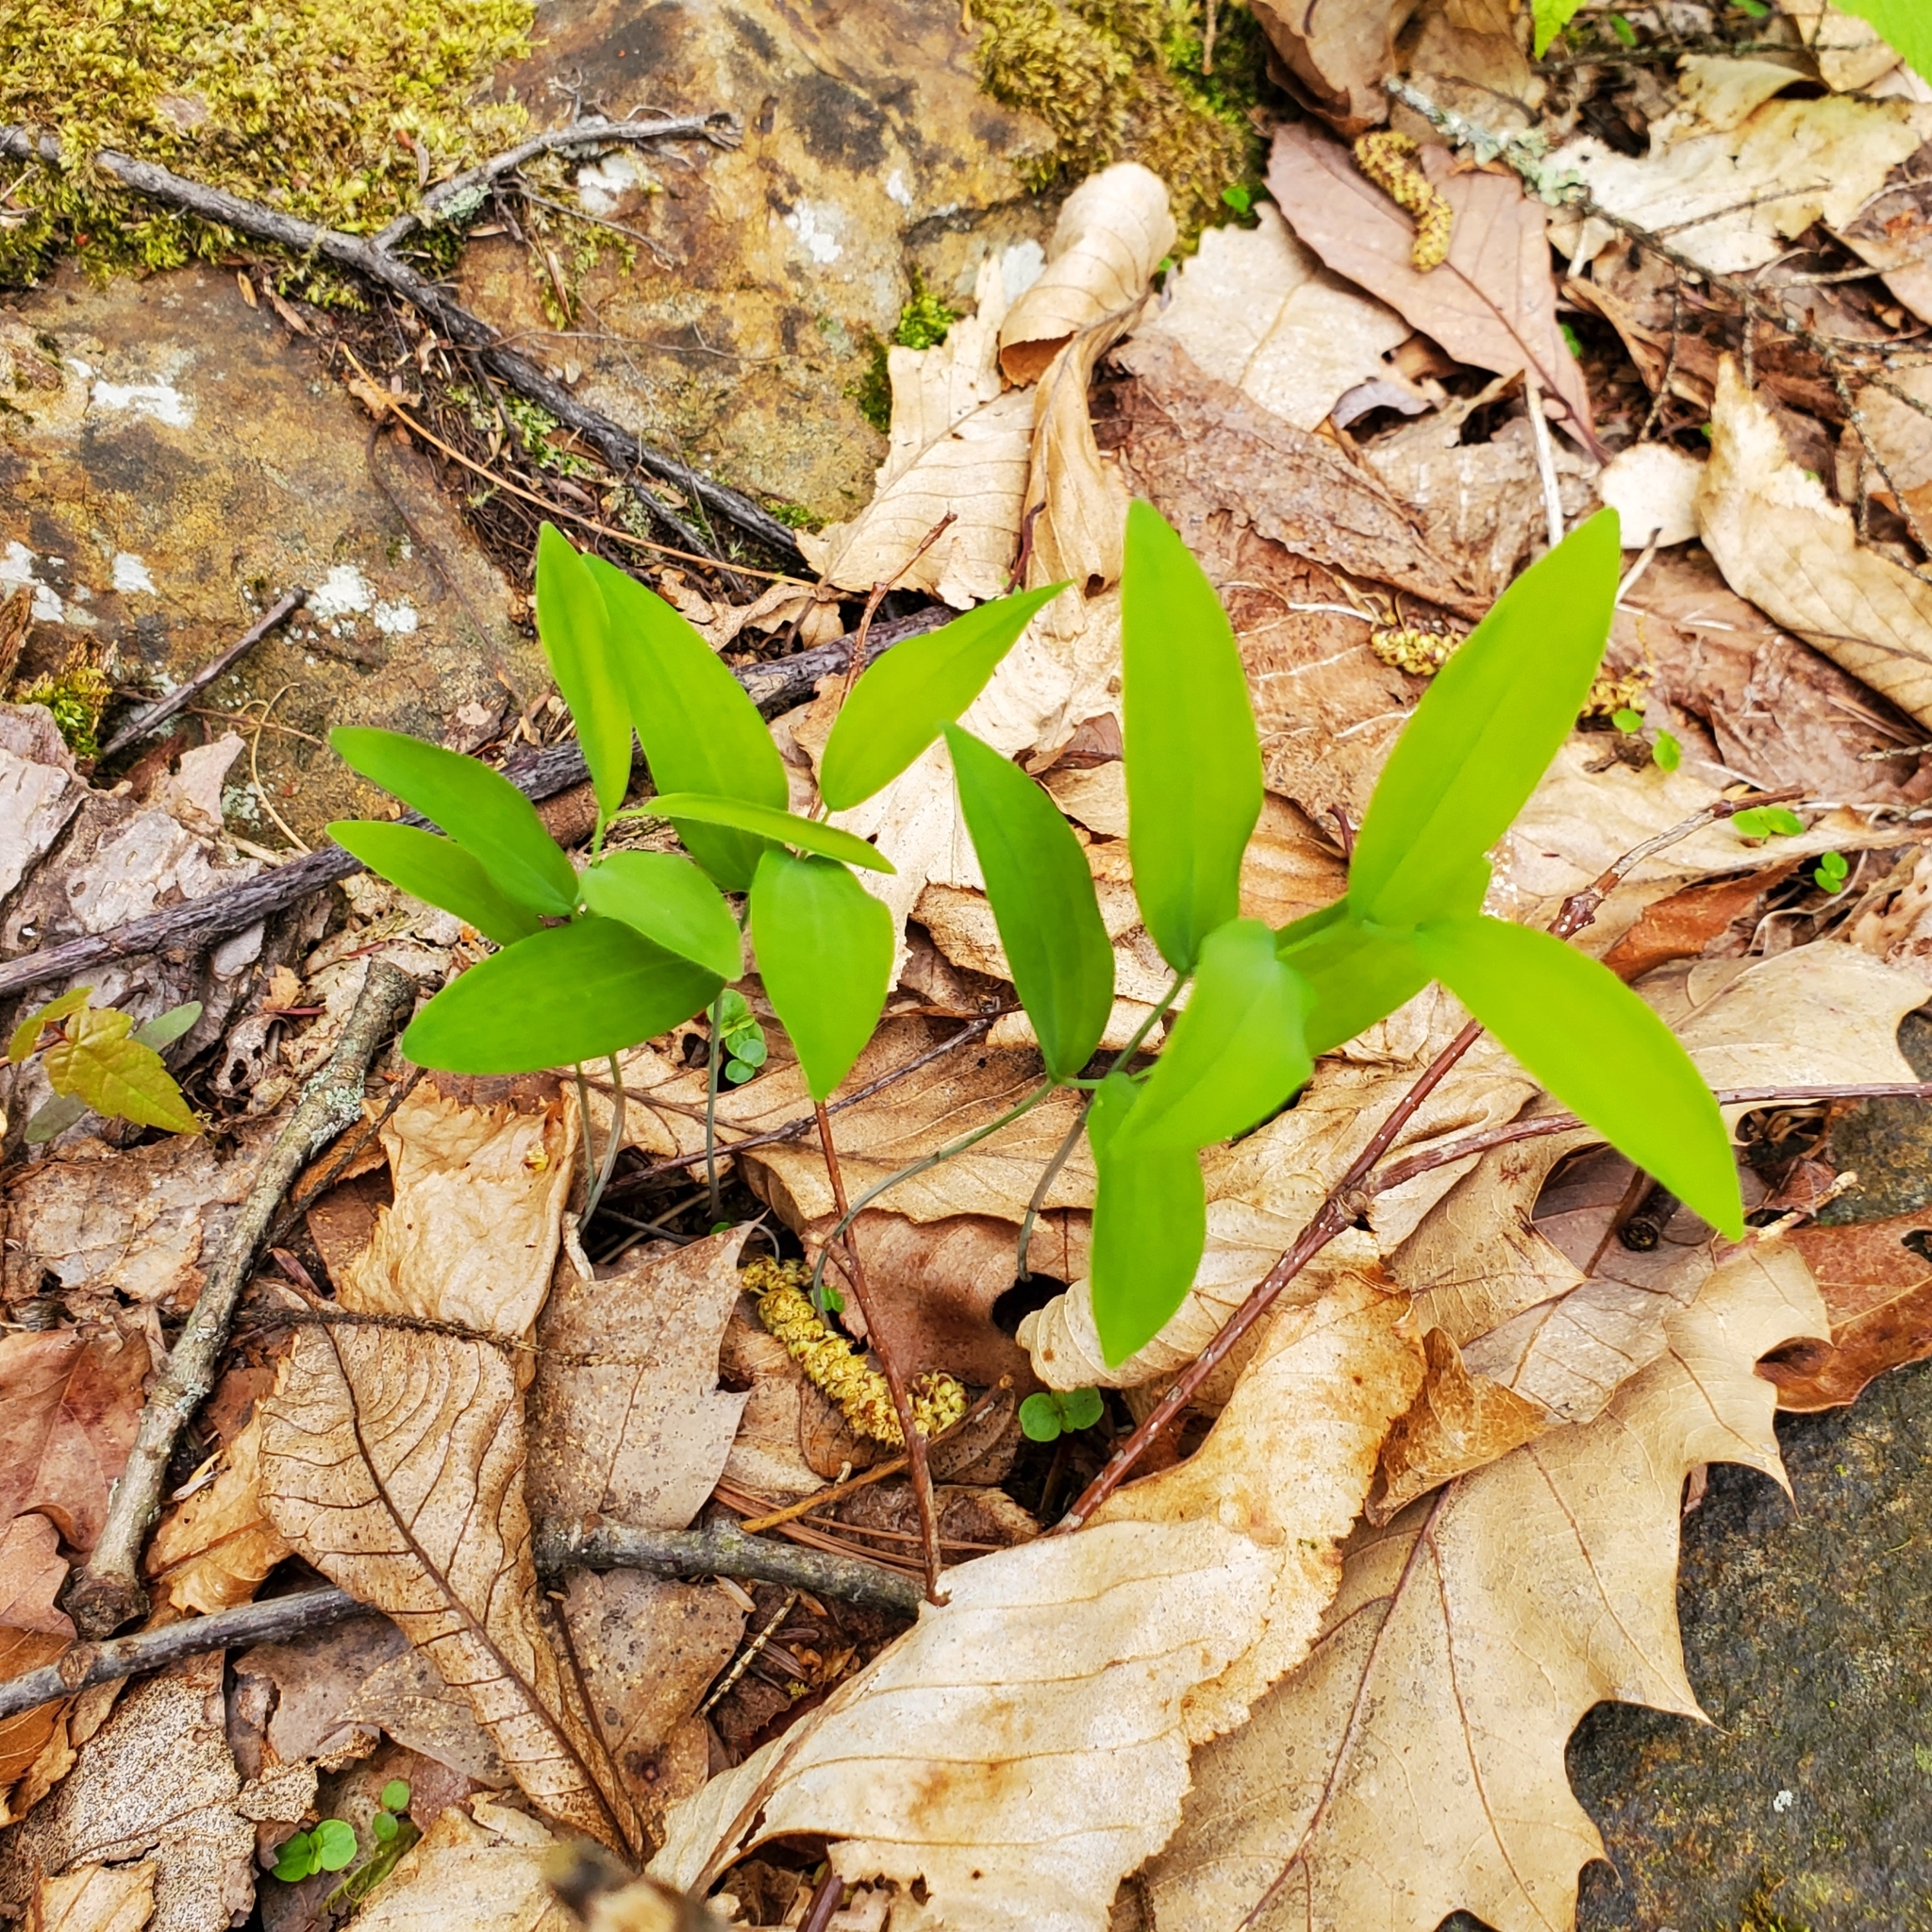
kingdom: Plantae
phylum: Tracheophyta
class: Liliopsida
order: Asparagales
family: Asparagaceae
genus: Polygonatum
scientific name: Polygonatum pubescens
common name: Downy solomon's seal
